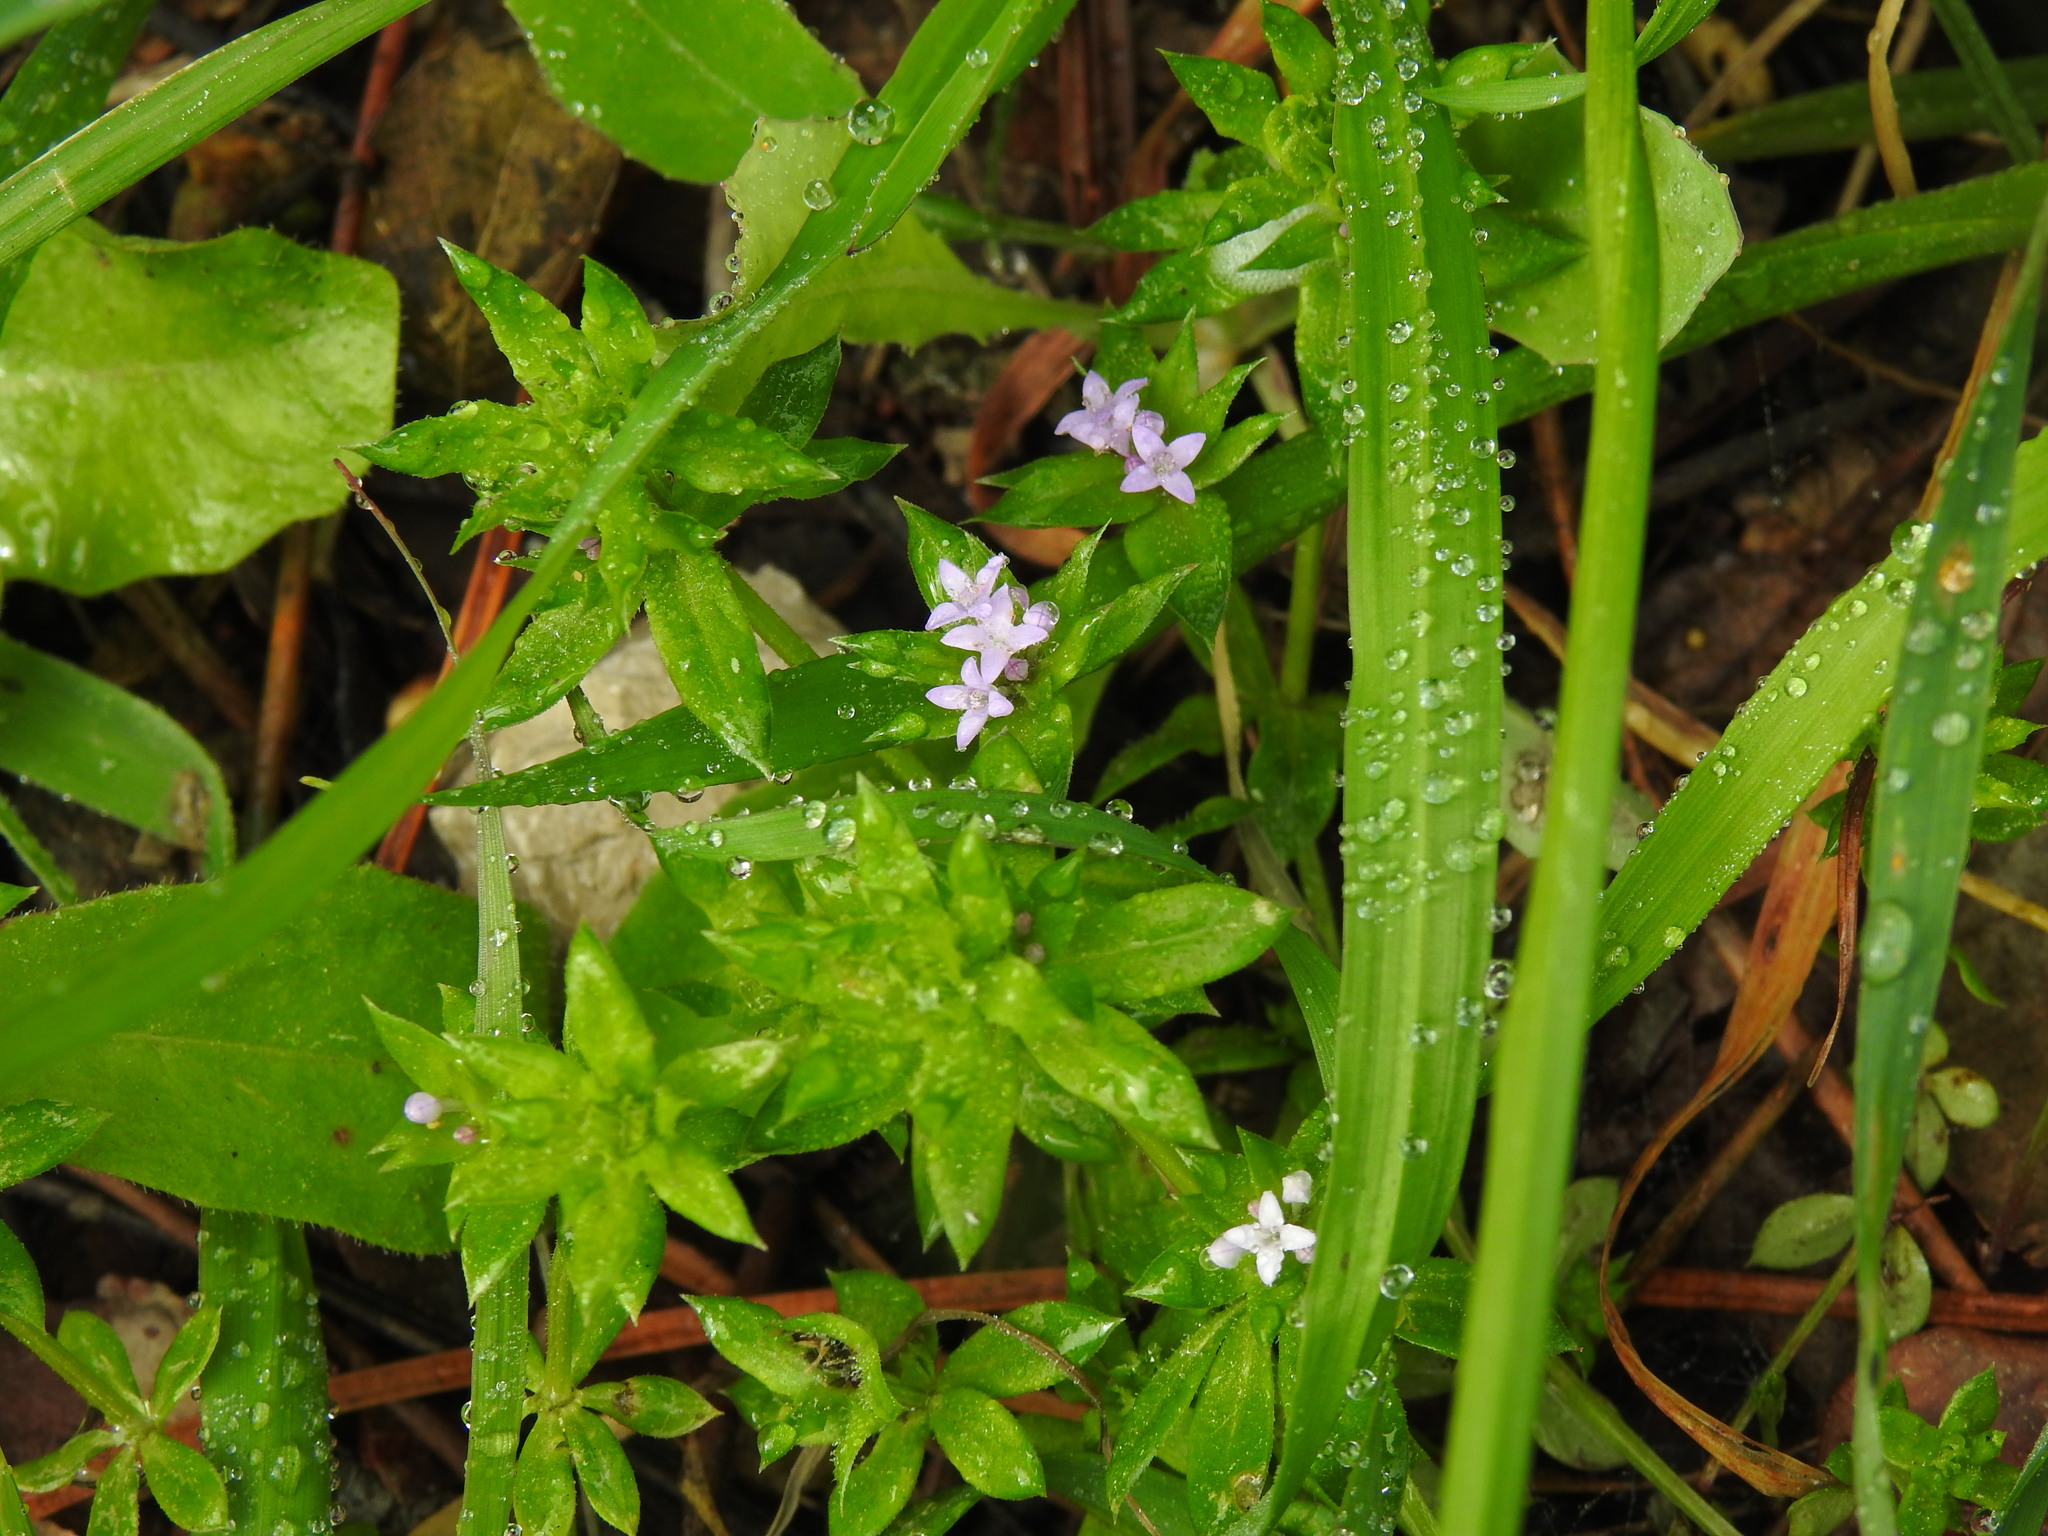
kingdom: Plantae
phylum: Tracheophyta
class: Magnoliopsida
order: Gentianales
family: Rubiaceae
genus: Sherardia
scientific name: Sherardia arvensis
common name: Field madder
